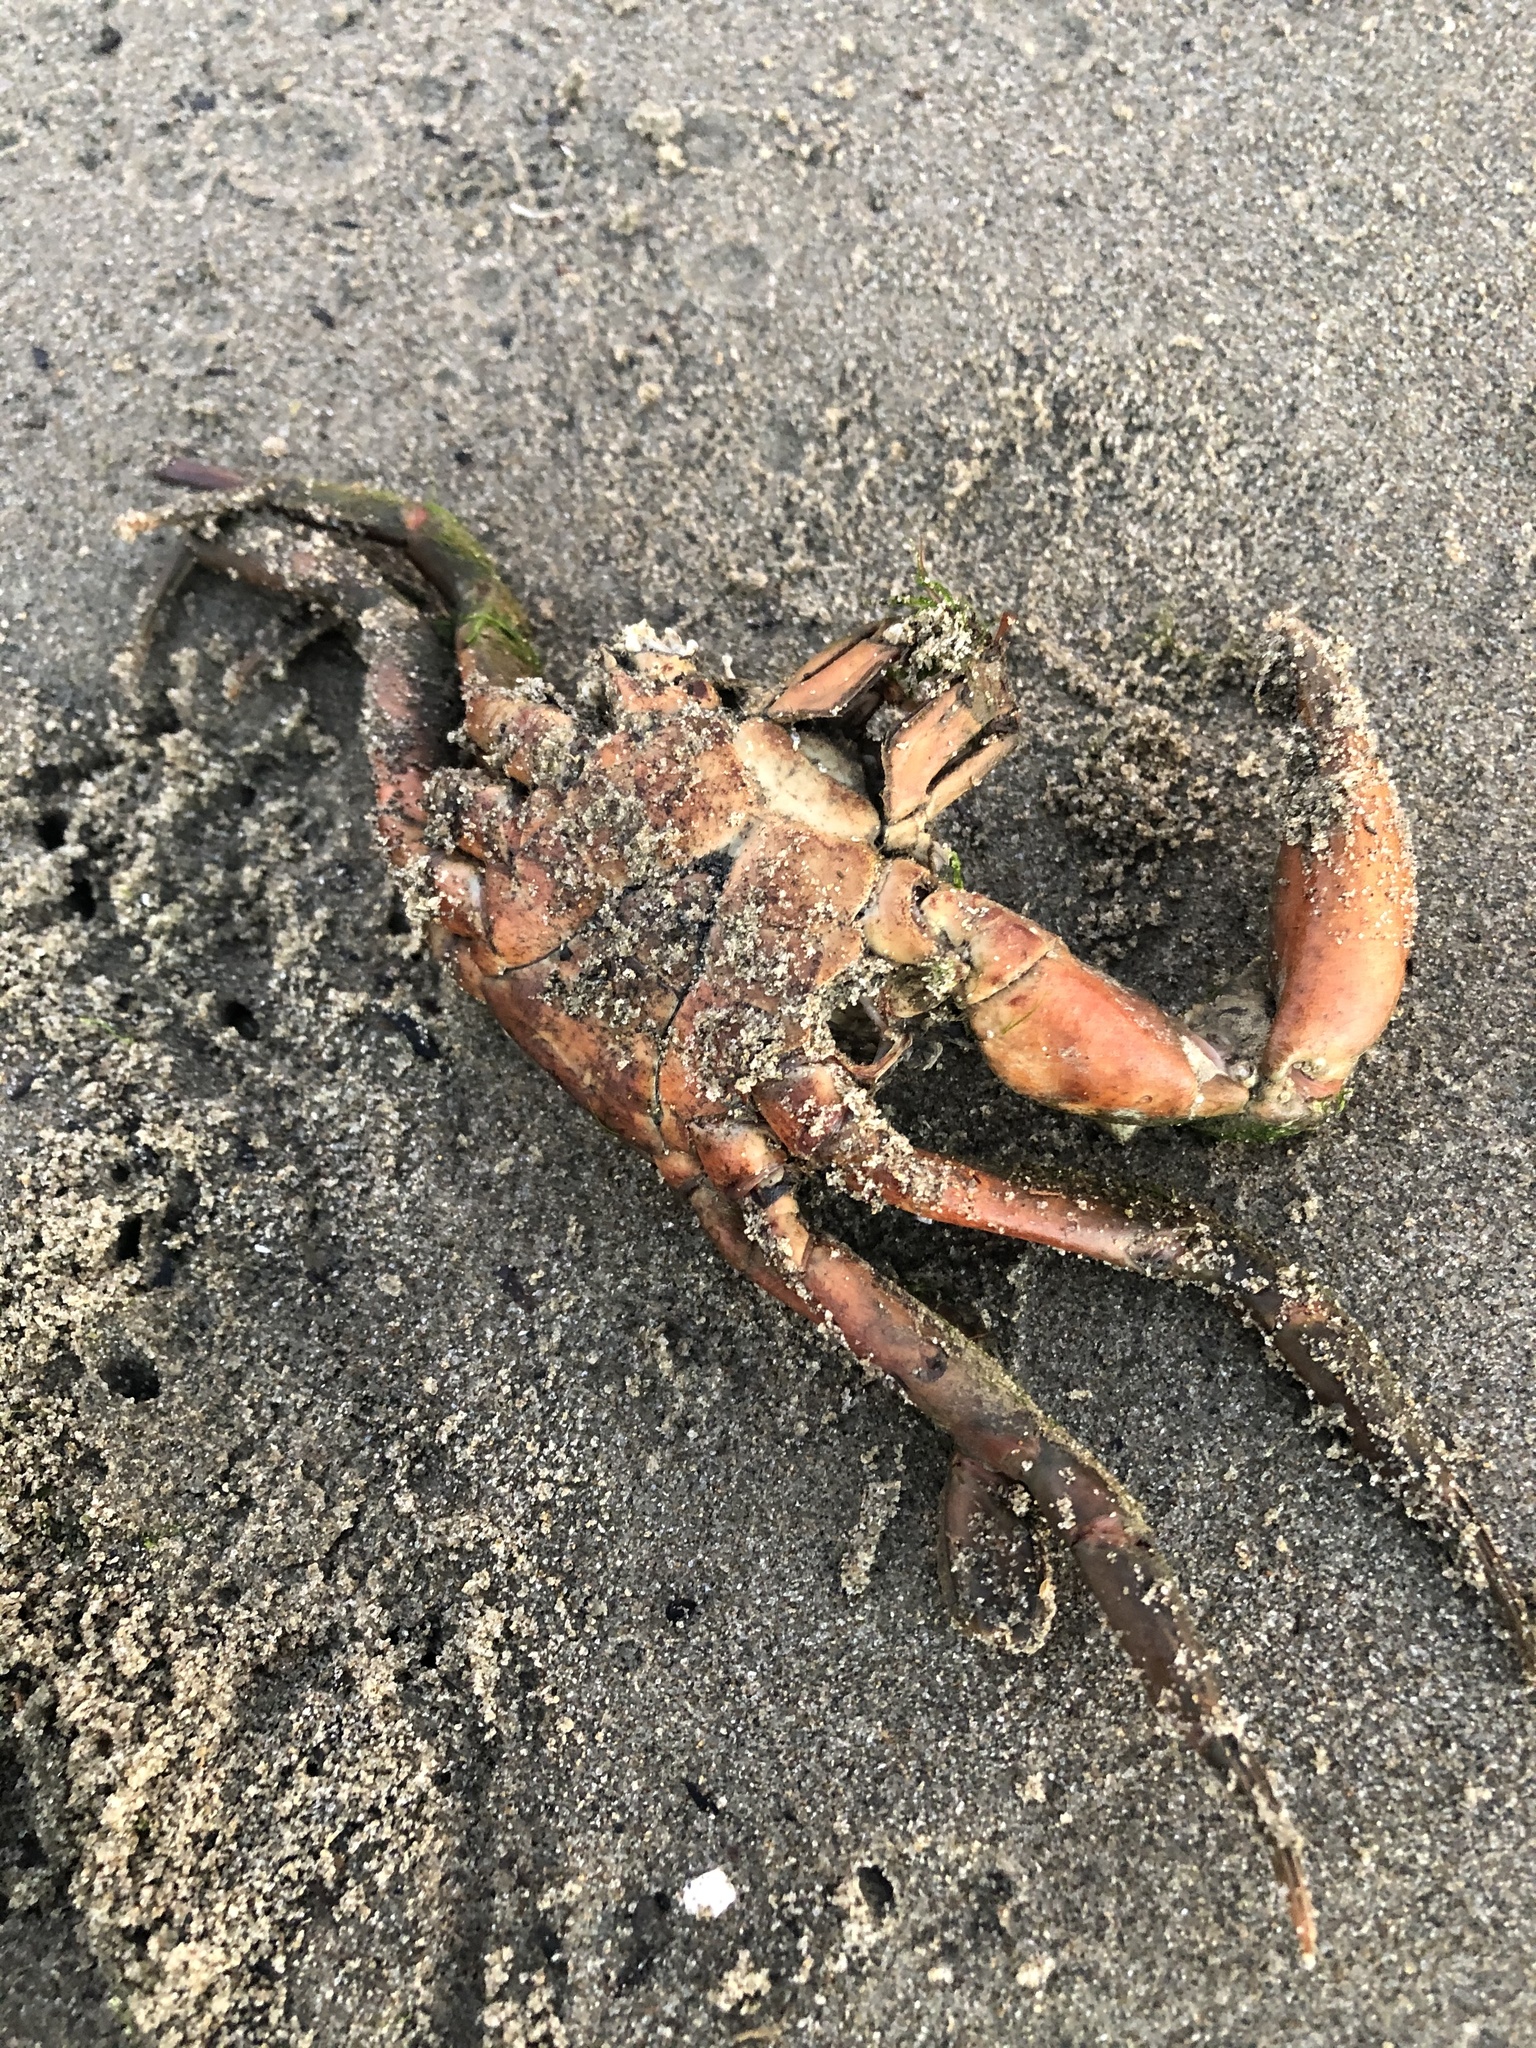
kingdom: Animalia
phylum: Arthropoda
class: Malacostraca
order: Decapoda
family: Epialtidae
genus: Pugettia
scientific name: Pugettia producta
